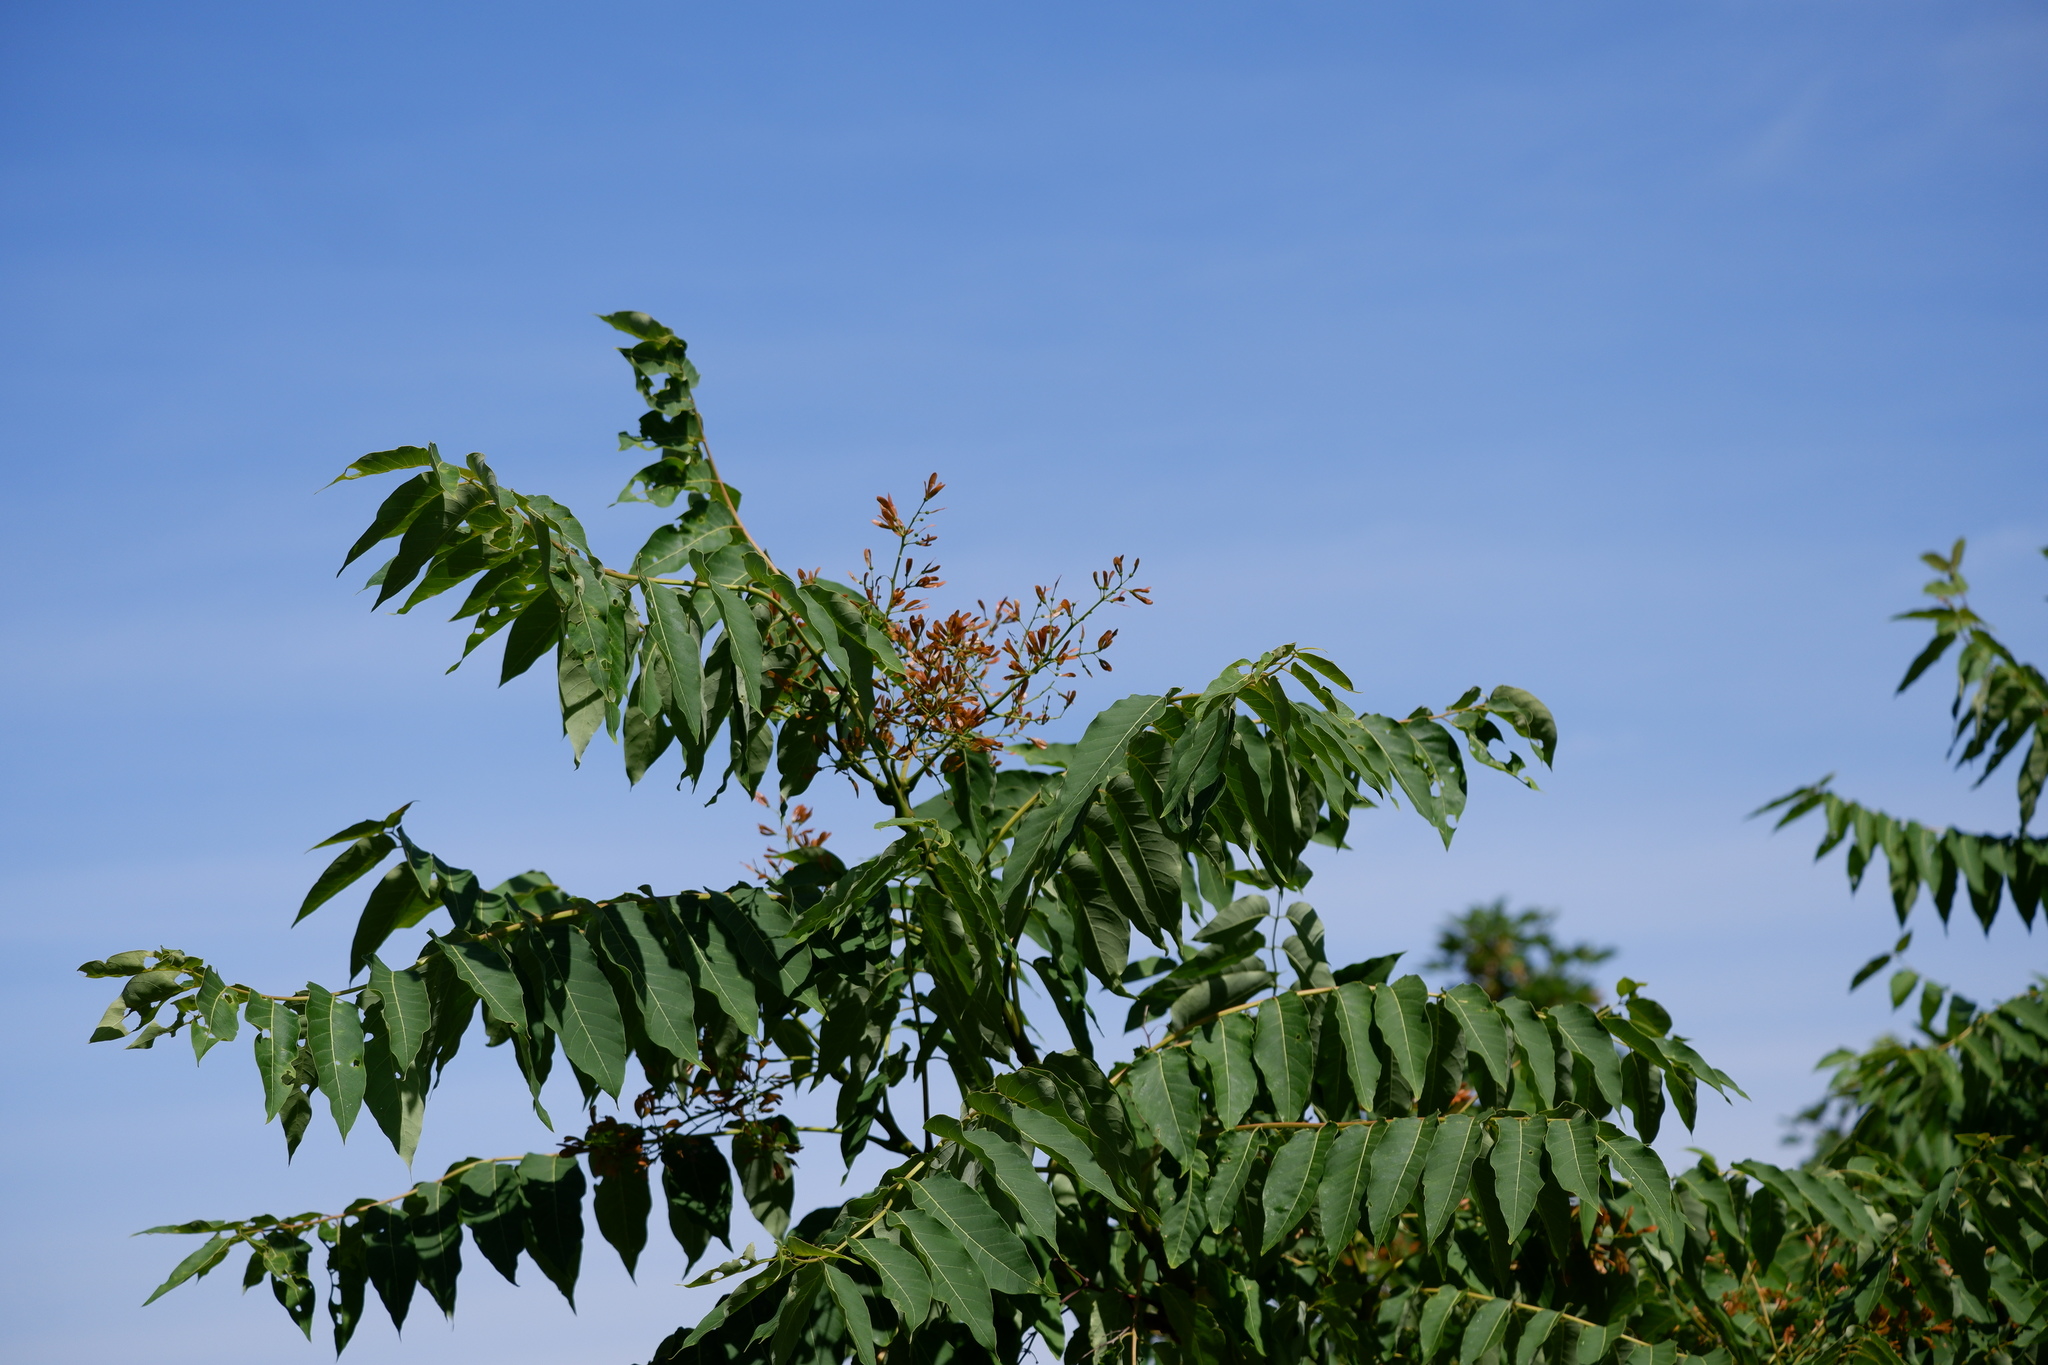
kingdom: Plantae
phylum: Tracheophyta
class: Magnoliopsida
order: Sapindales
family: Simaroubaceae
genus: Ailanthus
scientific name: Ailanthus altissima
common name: Tree-of-heaven
